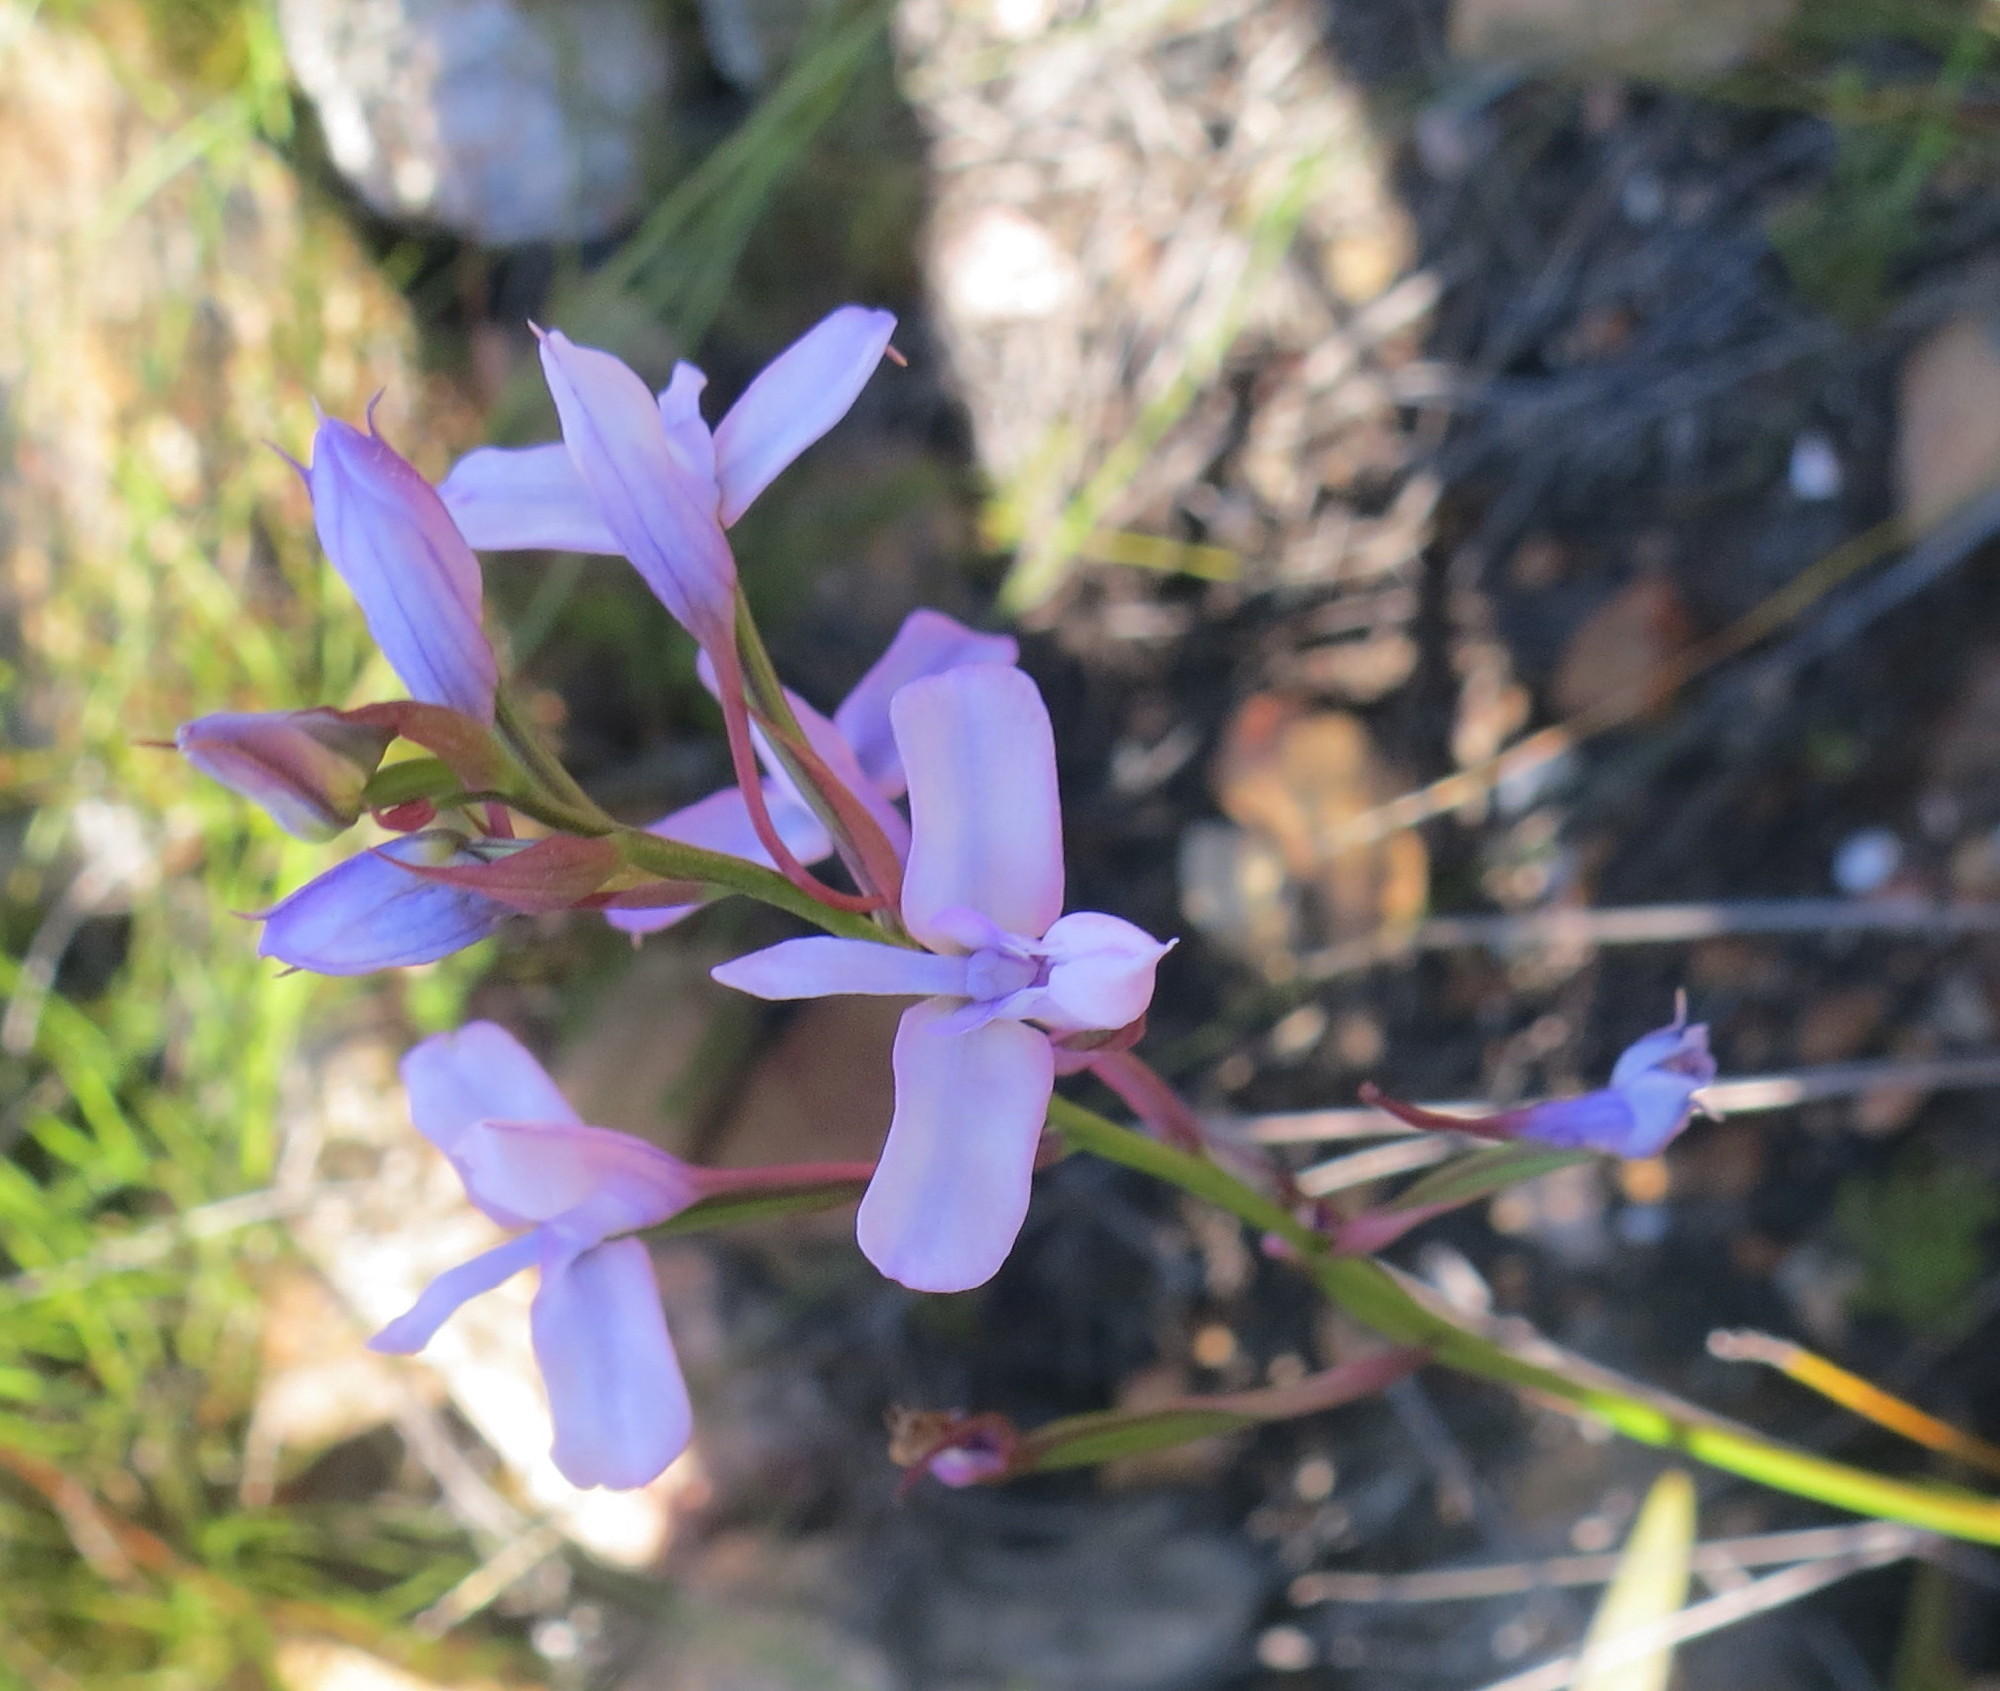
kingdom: Plantae
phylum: Tracheophyta
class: Liliopsida
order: Asparagales
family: Orchidaceae
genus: Disa
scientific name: Disa arida
